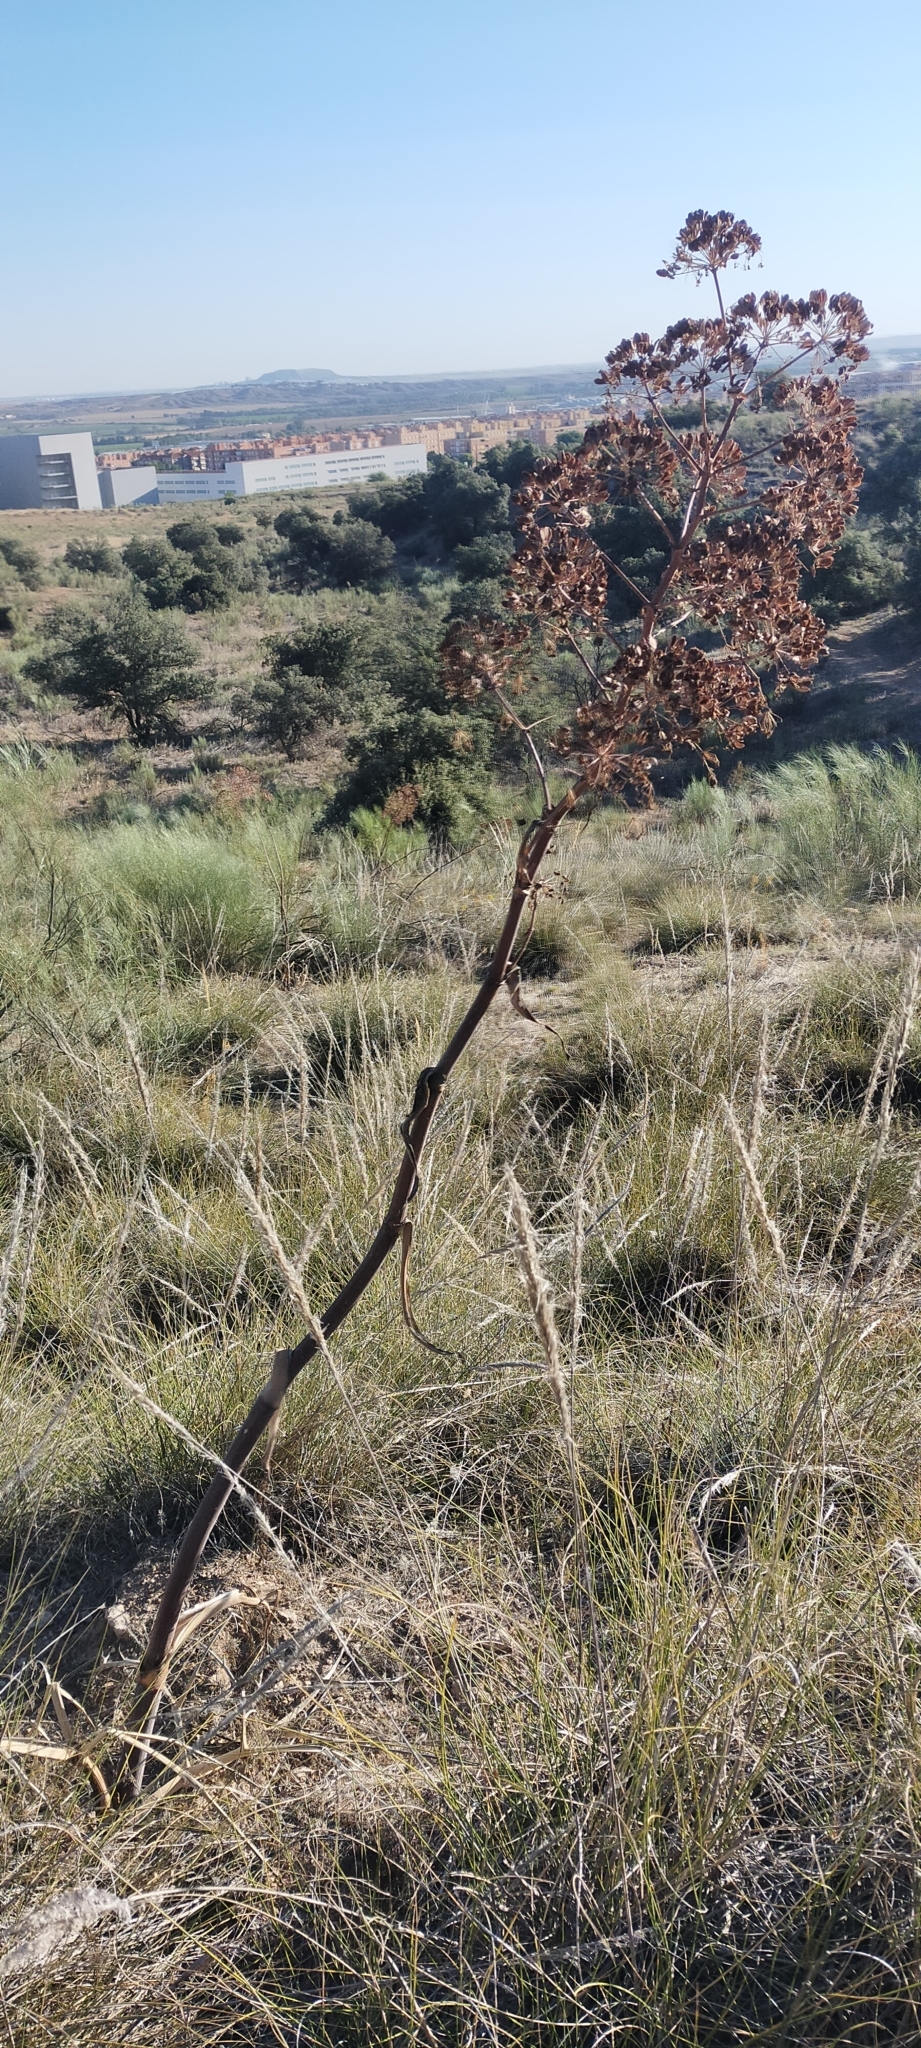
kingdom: Plantae
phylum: Tracheophyta
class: Magnoliopsida
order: Apiales
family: Apiaceae
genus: Ferula
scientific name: Ferula communis
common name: Giant fennel
